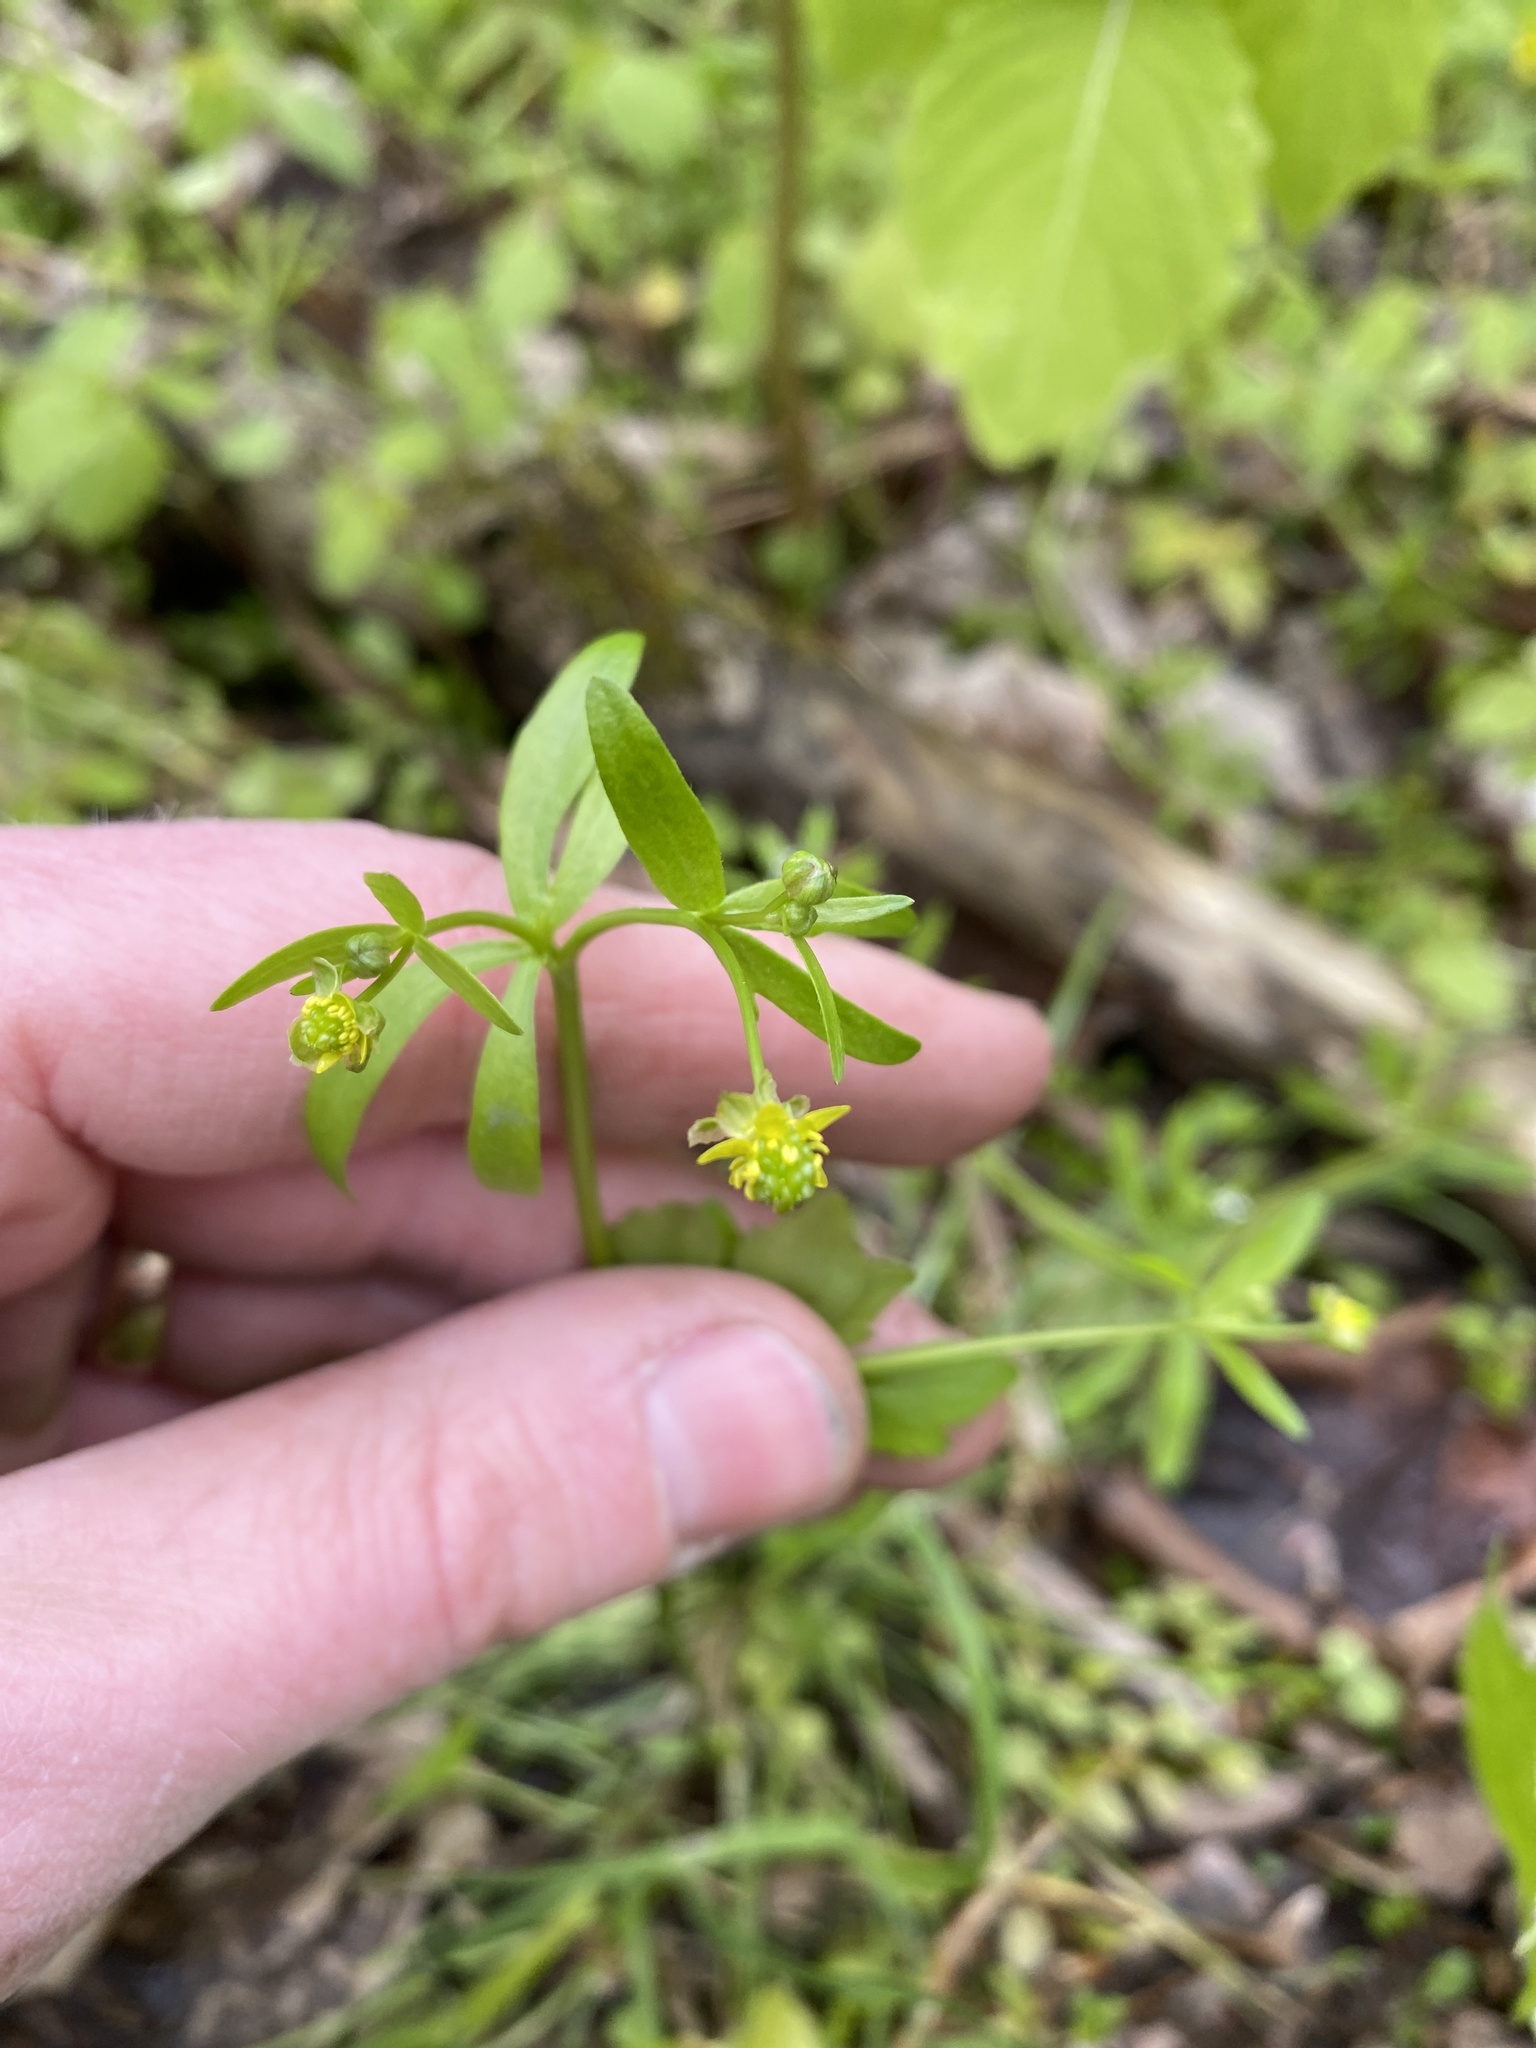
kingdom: Plantae
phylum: Tracheophyta
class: Magnoliopsida
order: Ranunculales
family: Ranunculaceae
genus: Ranunculus
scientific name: Ranunculus abortivus
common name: Early wood buttercup
